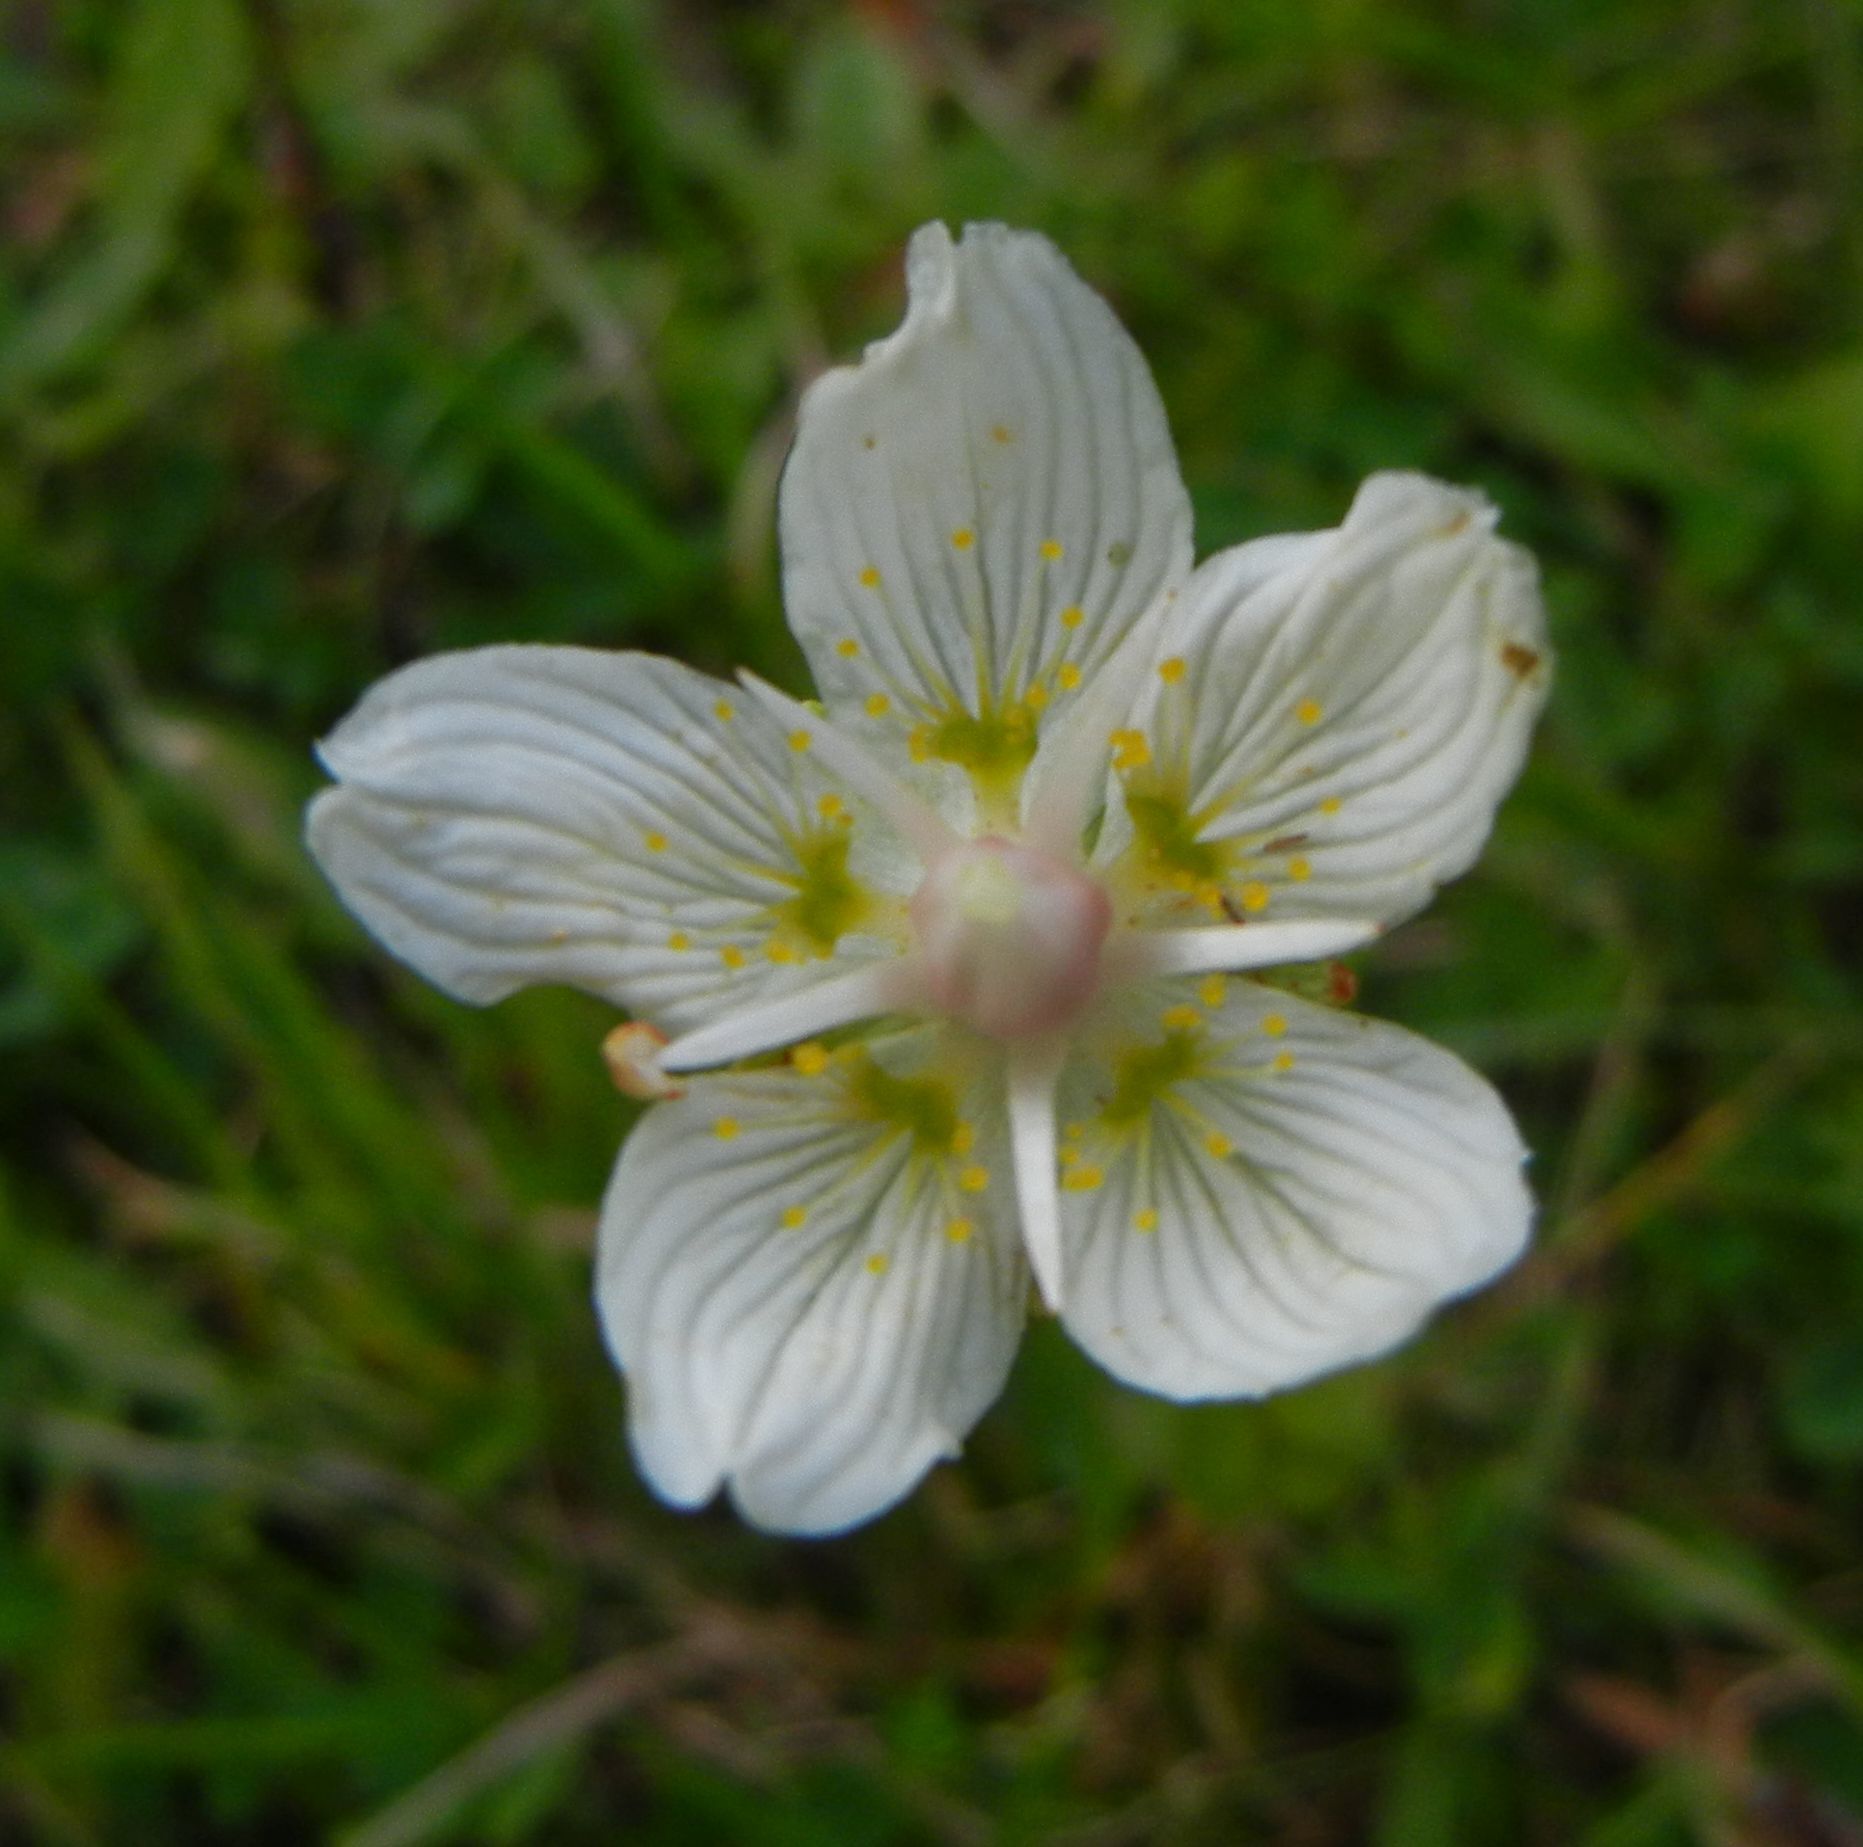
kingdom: Plantae
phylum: Tracheophyta
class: Magnoliopsida
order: Celastrales
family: Parnassiaceae
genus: Parnassia
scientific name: Parnassia palustris
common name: Grass-of-parnassus
